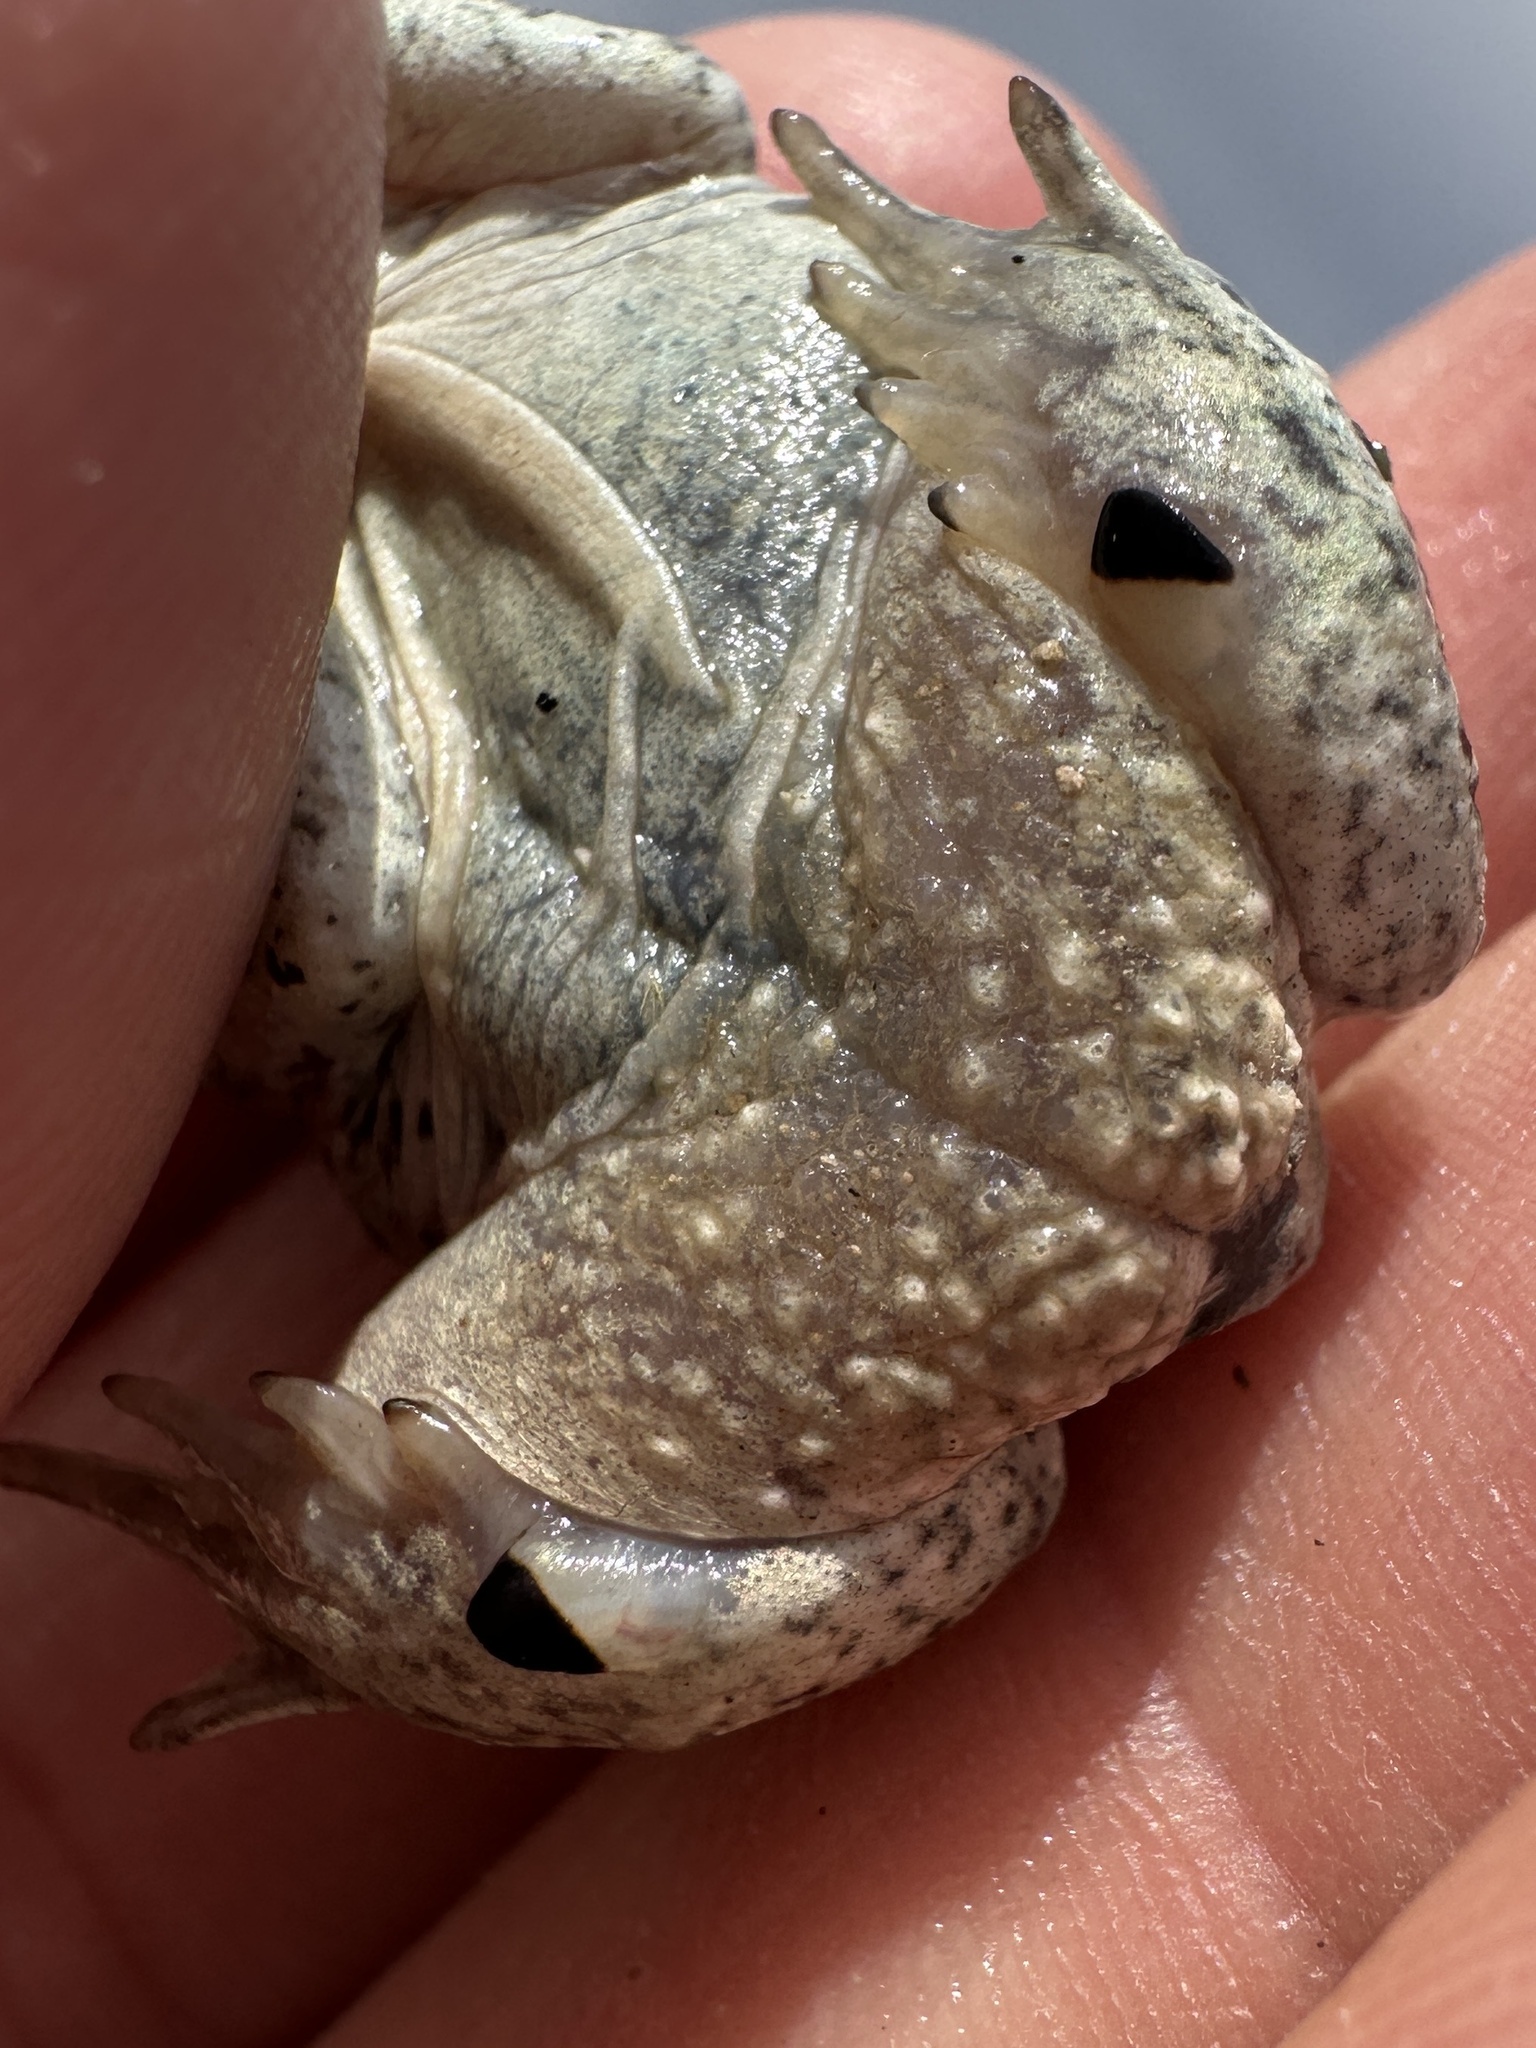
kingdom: Animalia
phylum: Chordata
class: Amphibia
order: Anura
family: Scaphiopodidae
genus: Spea
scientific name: Spea intermontana
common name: Great basin spadefoot
